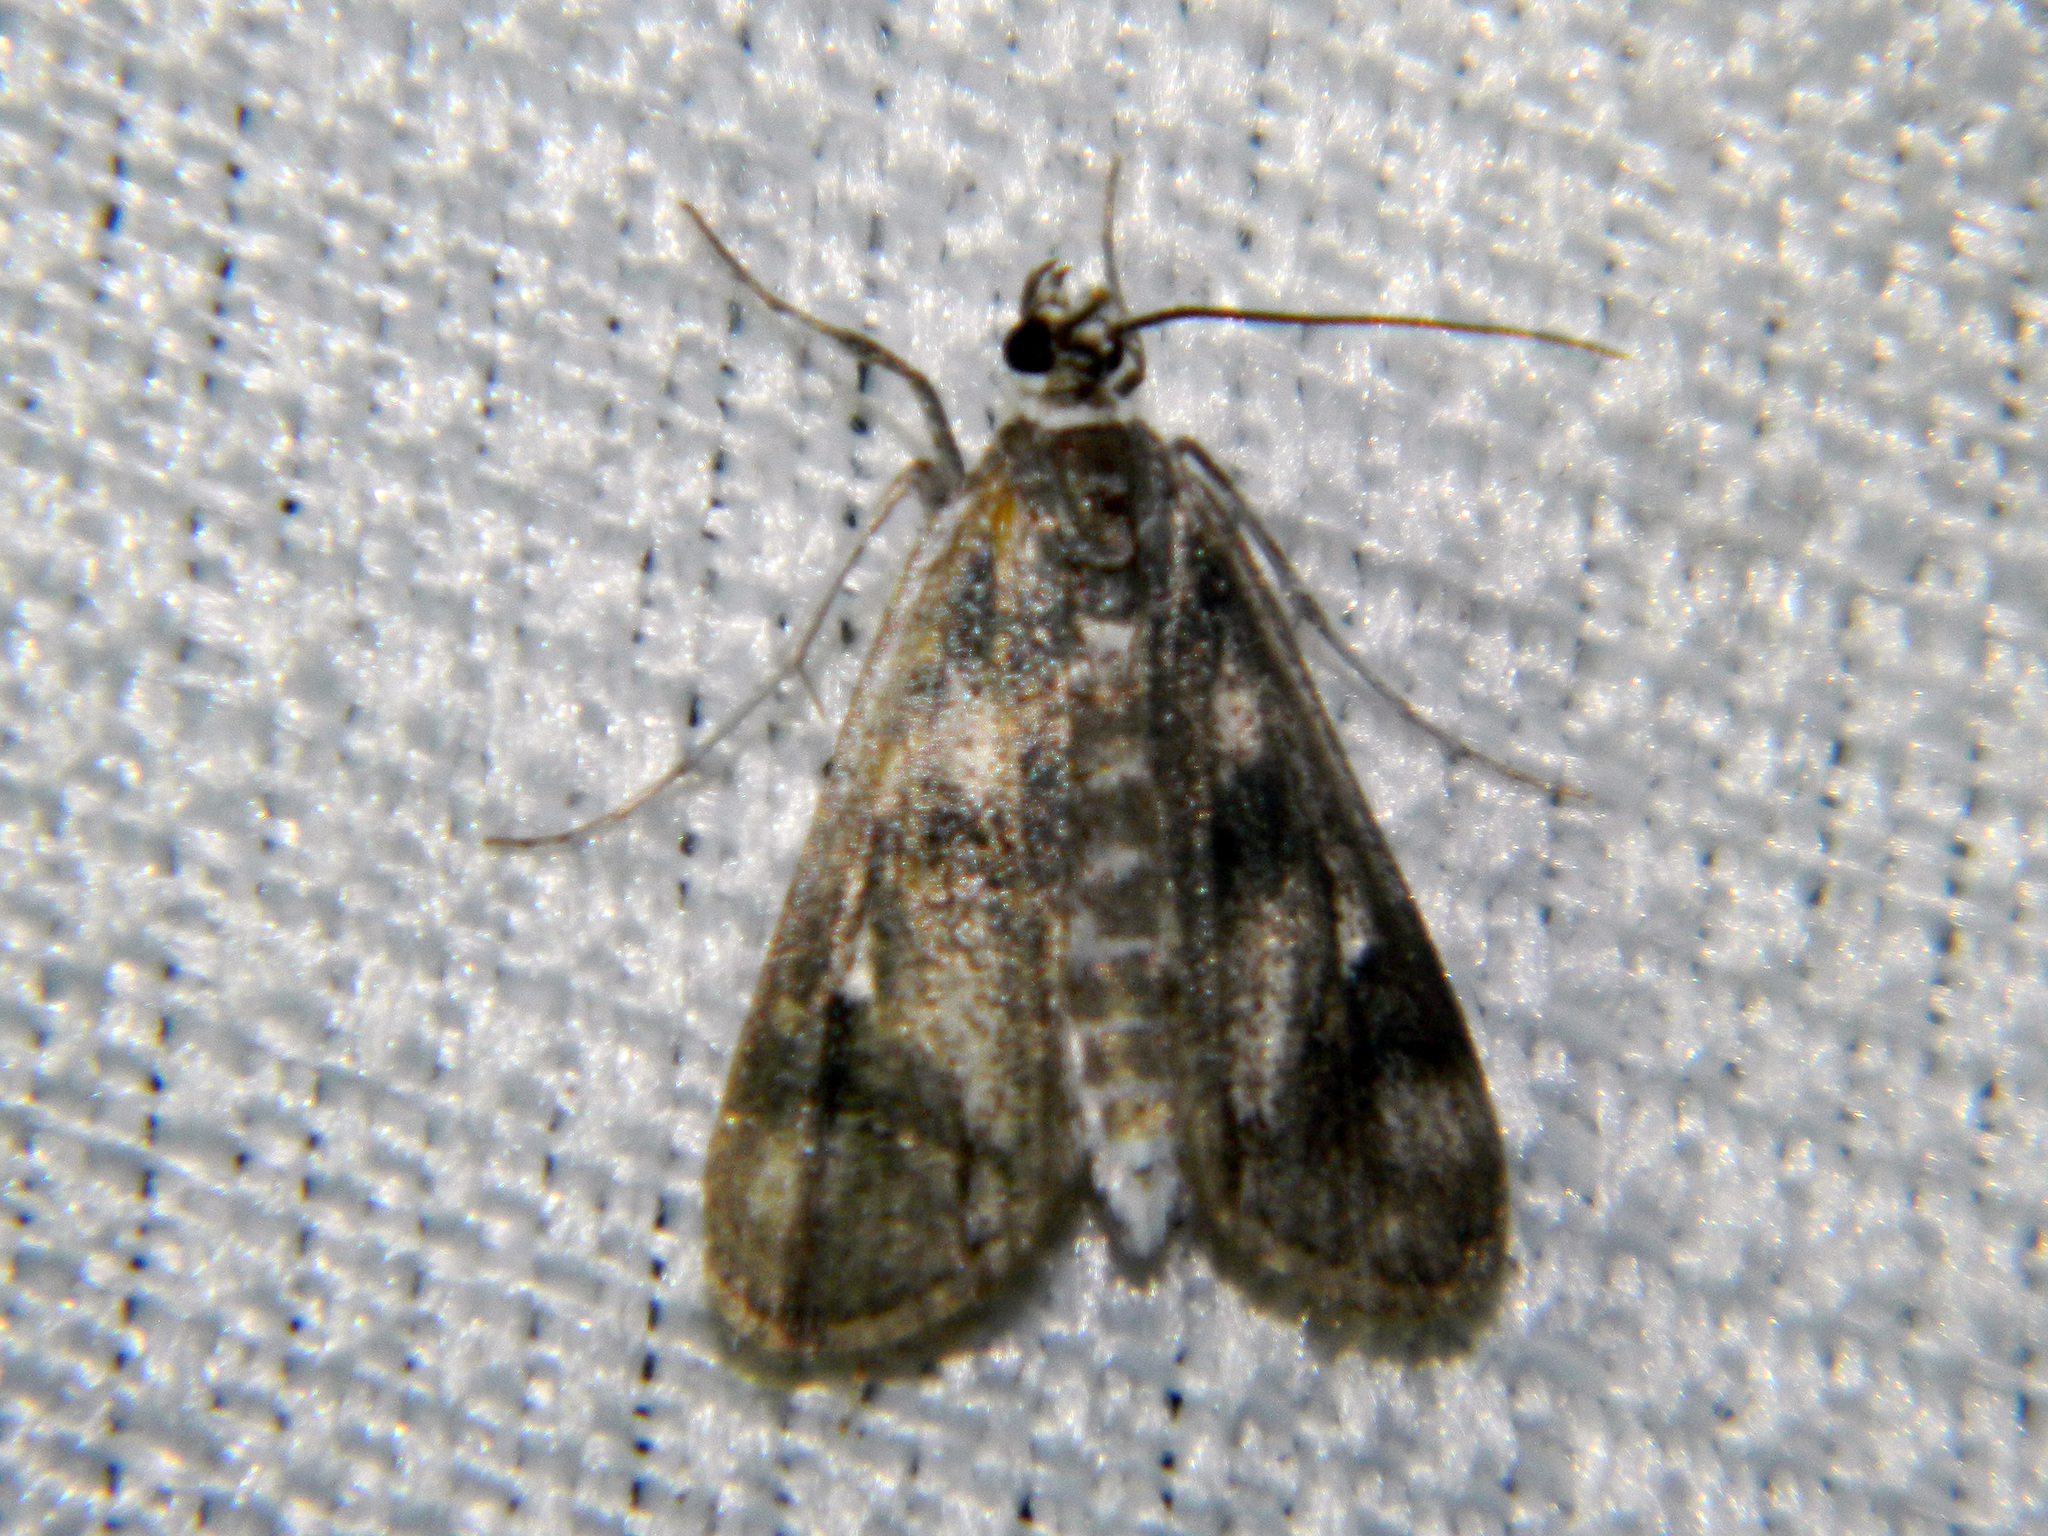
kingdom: Animalia
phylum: Arthropoda
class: Insecta
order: Lepidoptera
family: Crambidae
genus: Parapoynx
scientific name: Parapoynx maculalis
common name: Polymorphic pondweed moth
